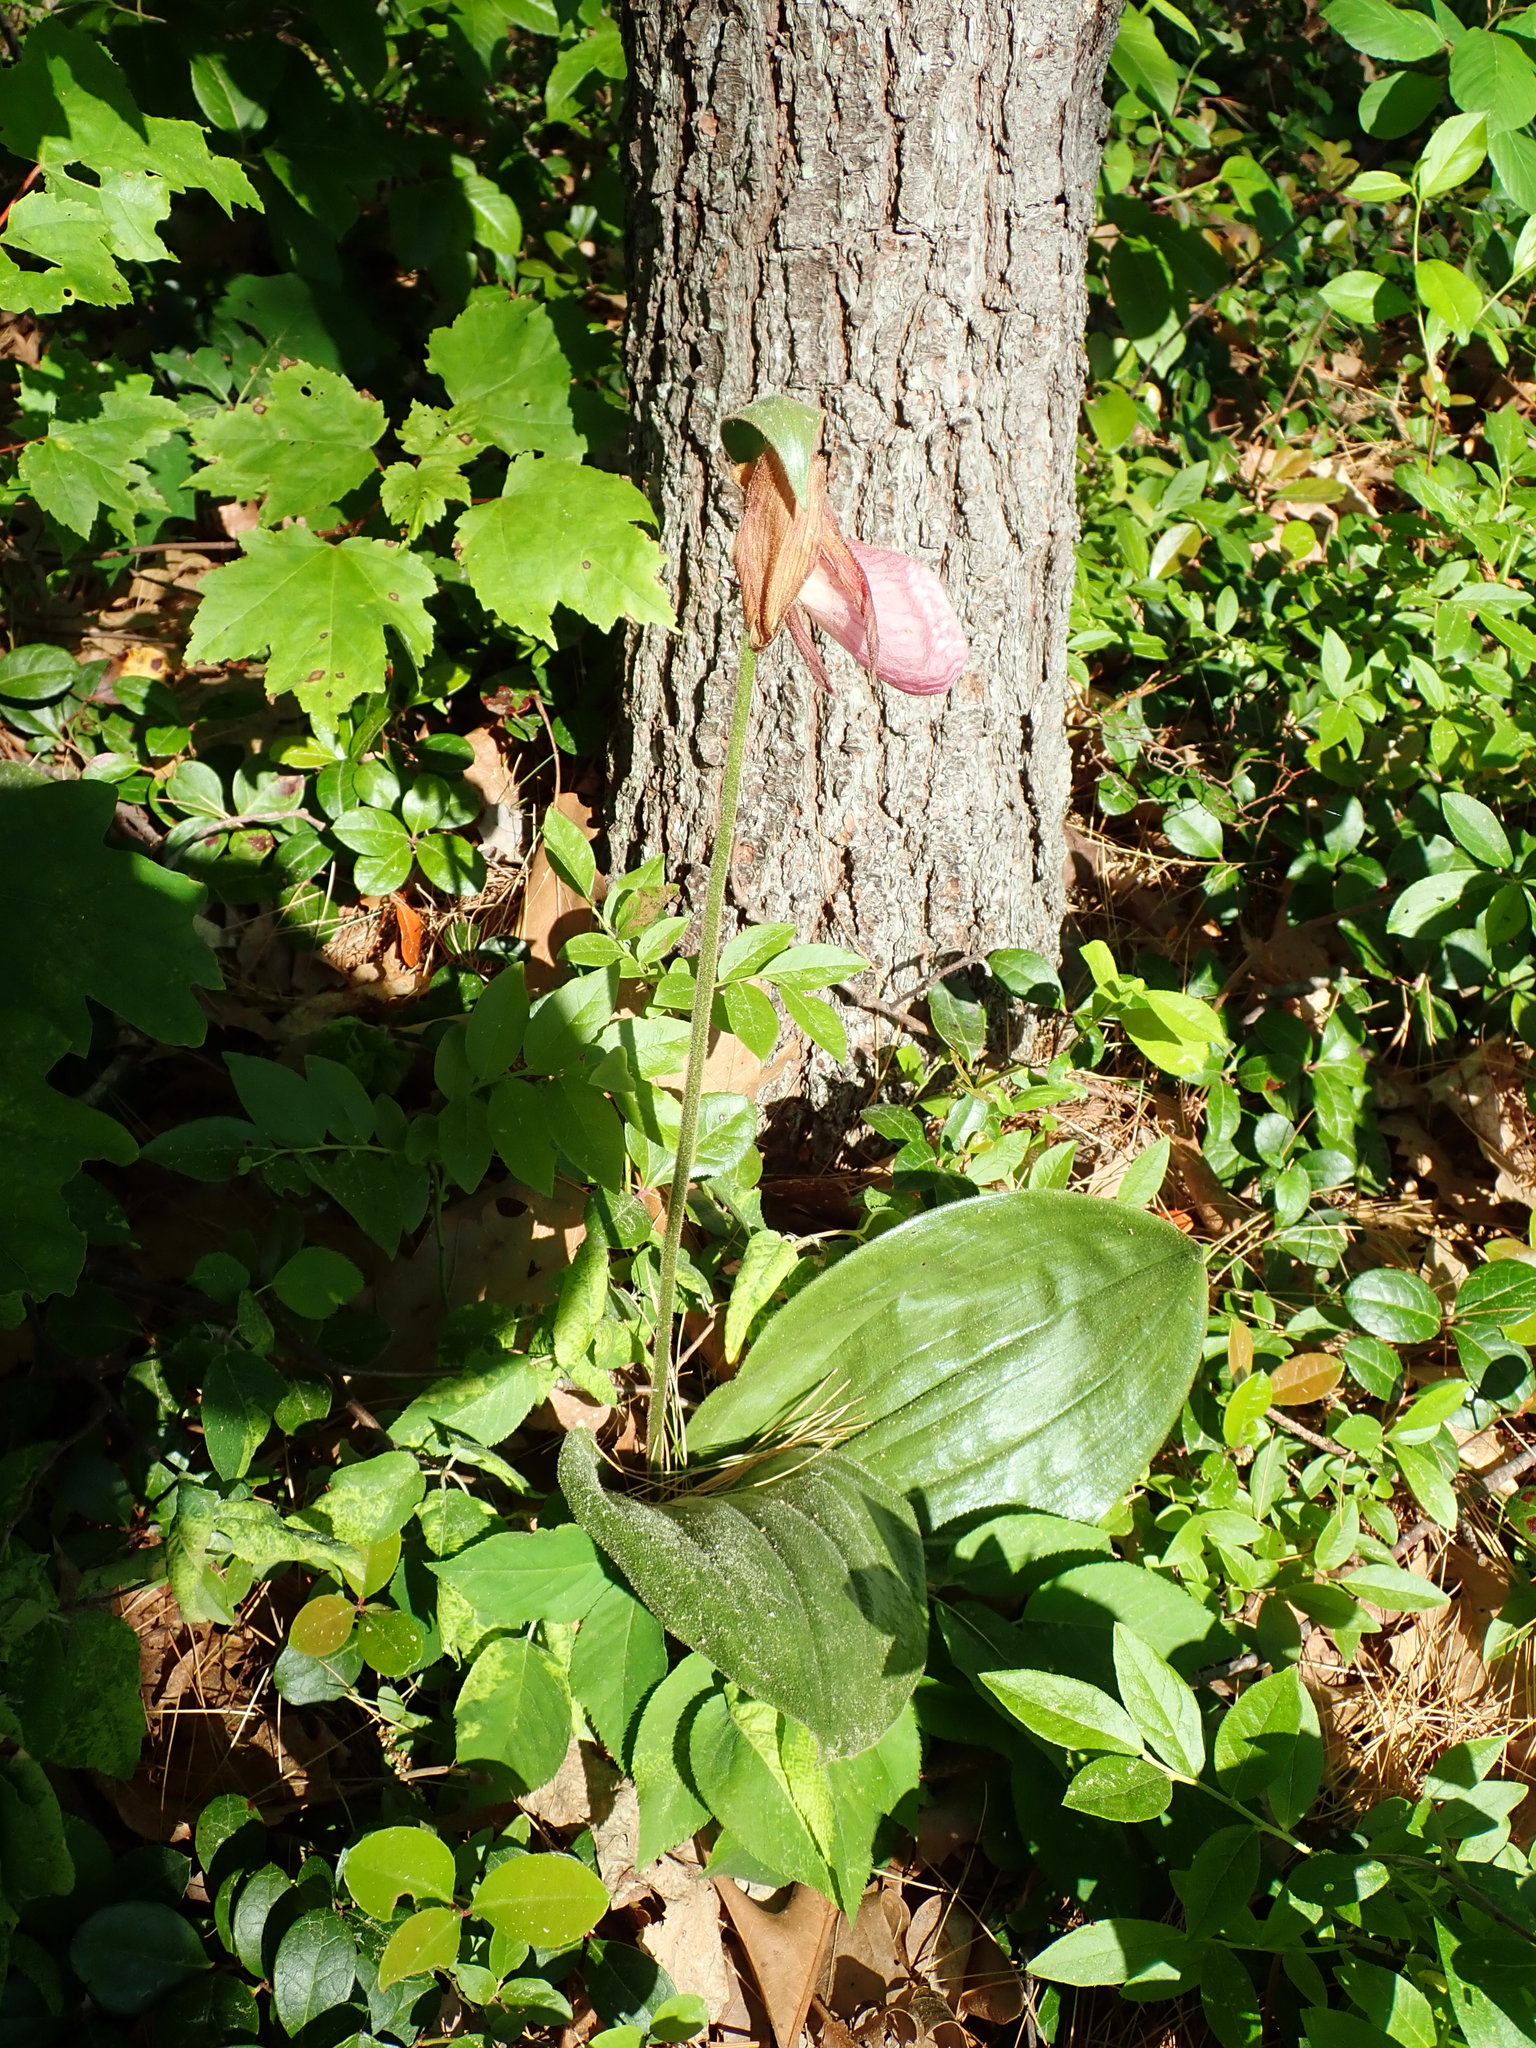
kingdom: Plantae
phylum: Tracheophyta
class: Liliopsida
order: Asparagales
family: Orchidaceae
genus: Cypripedium
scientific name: Cypripedium acaule
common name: Pink lady's-slipper
